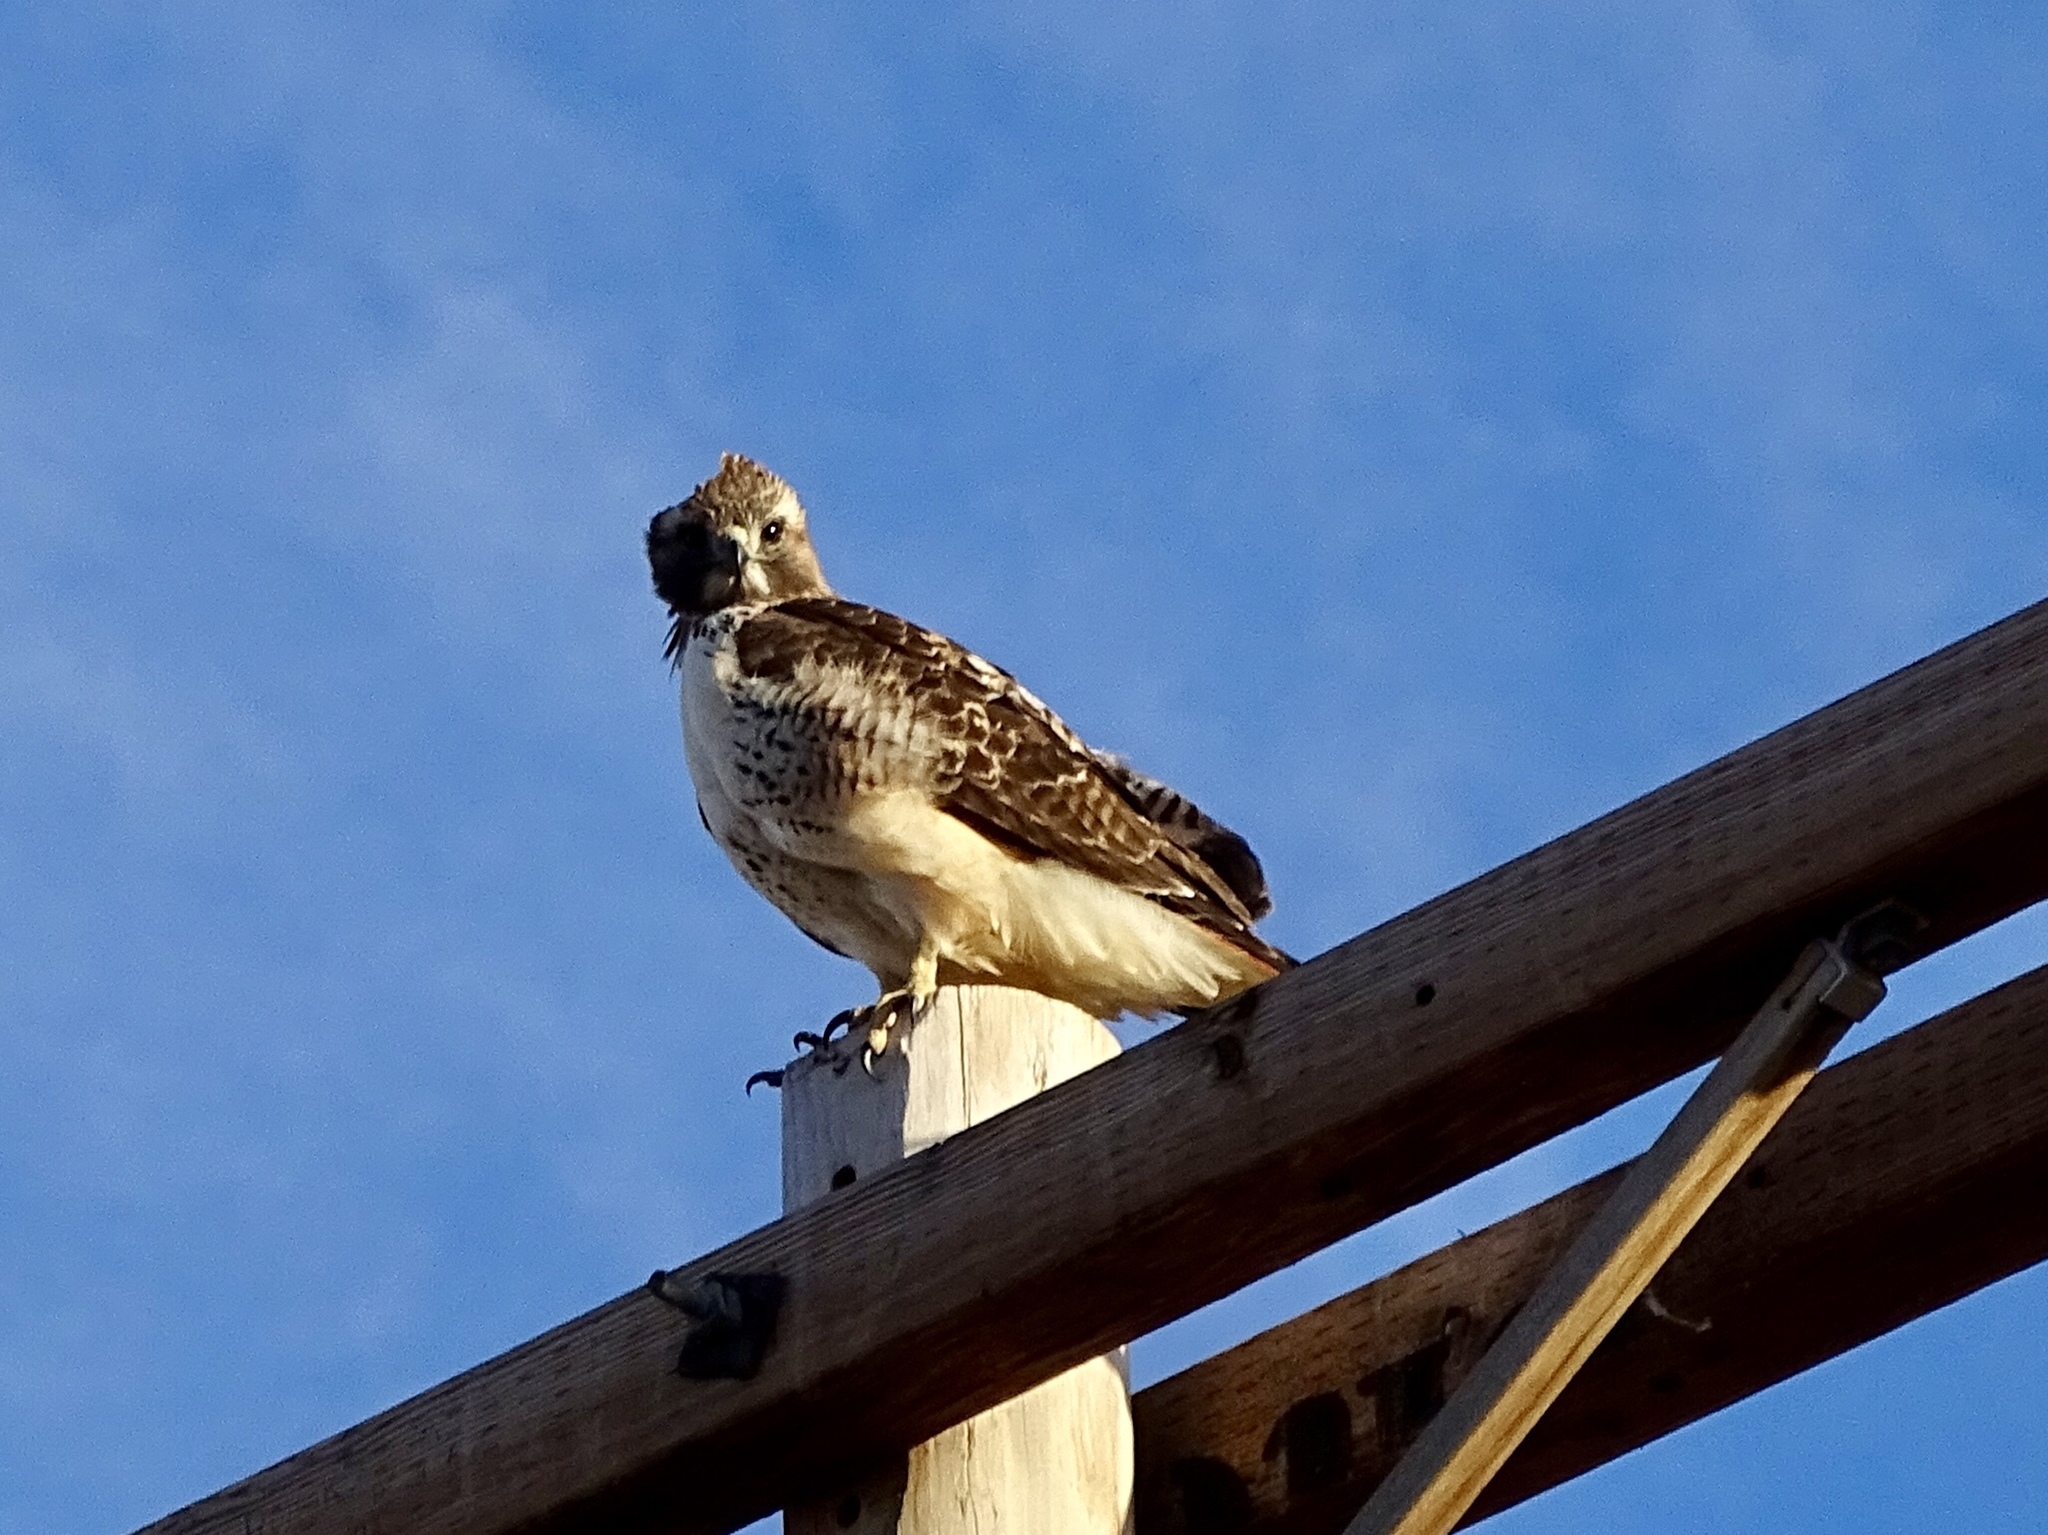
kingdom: Animalia
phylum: Chordata
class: Aves
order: Accipitriformes
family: Accipitridae
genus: Buteo
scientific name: Buteo jamaicensis
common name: Red-tailed hawk
